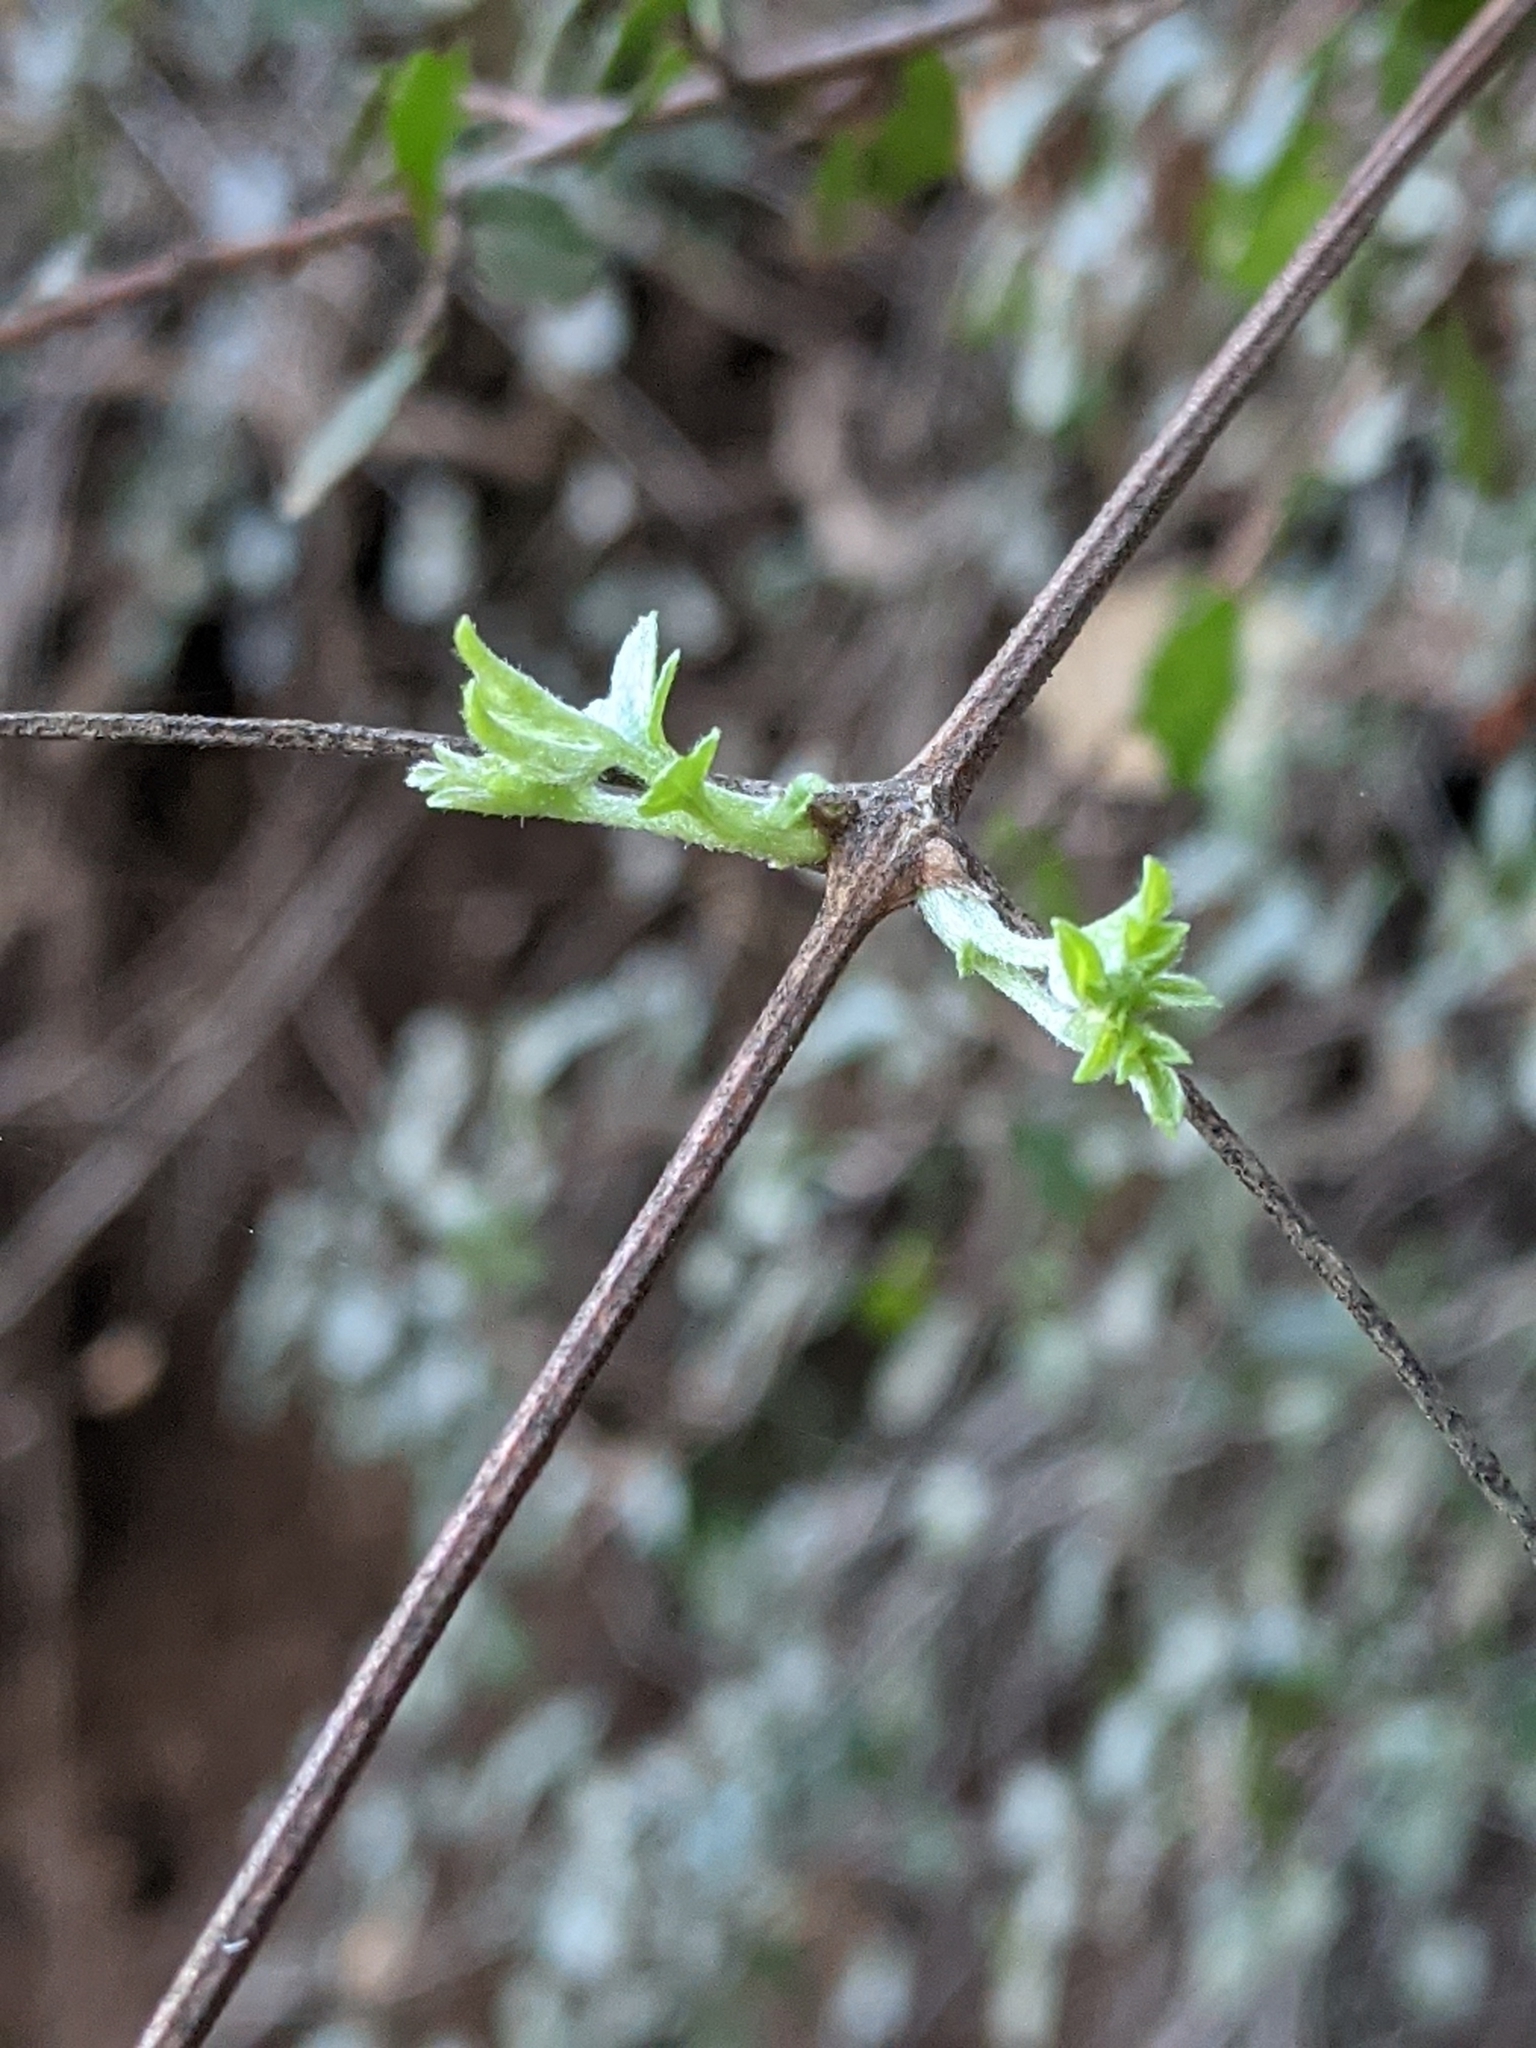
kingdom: Plantae
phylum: Tracheophyta
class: Magnoliopsida
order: Ranunculales
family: Ranunculaceae
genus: Clematis
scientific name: Clematis lasiantha
